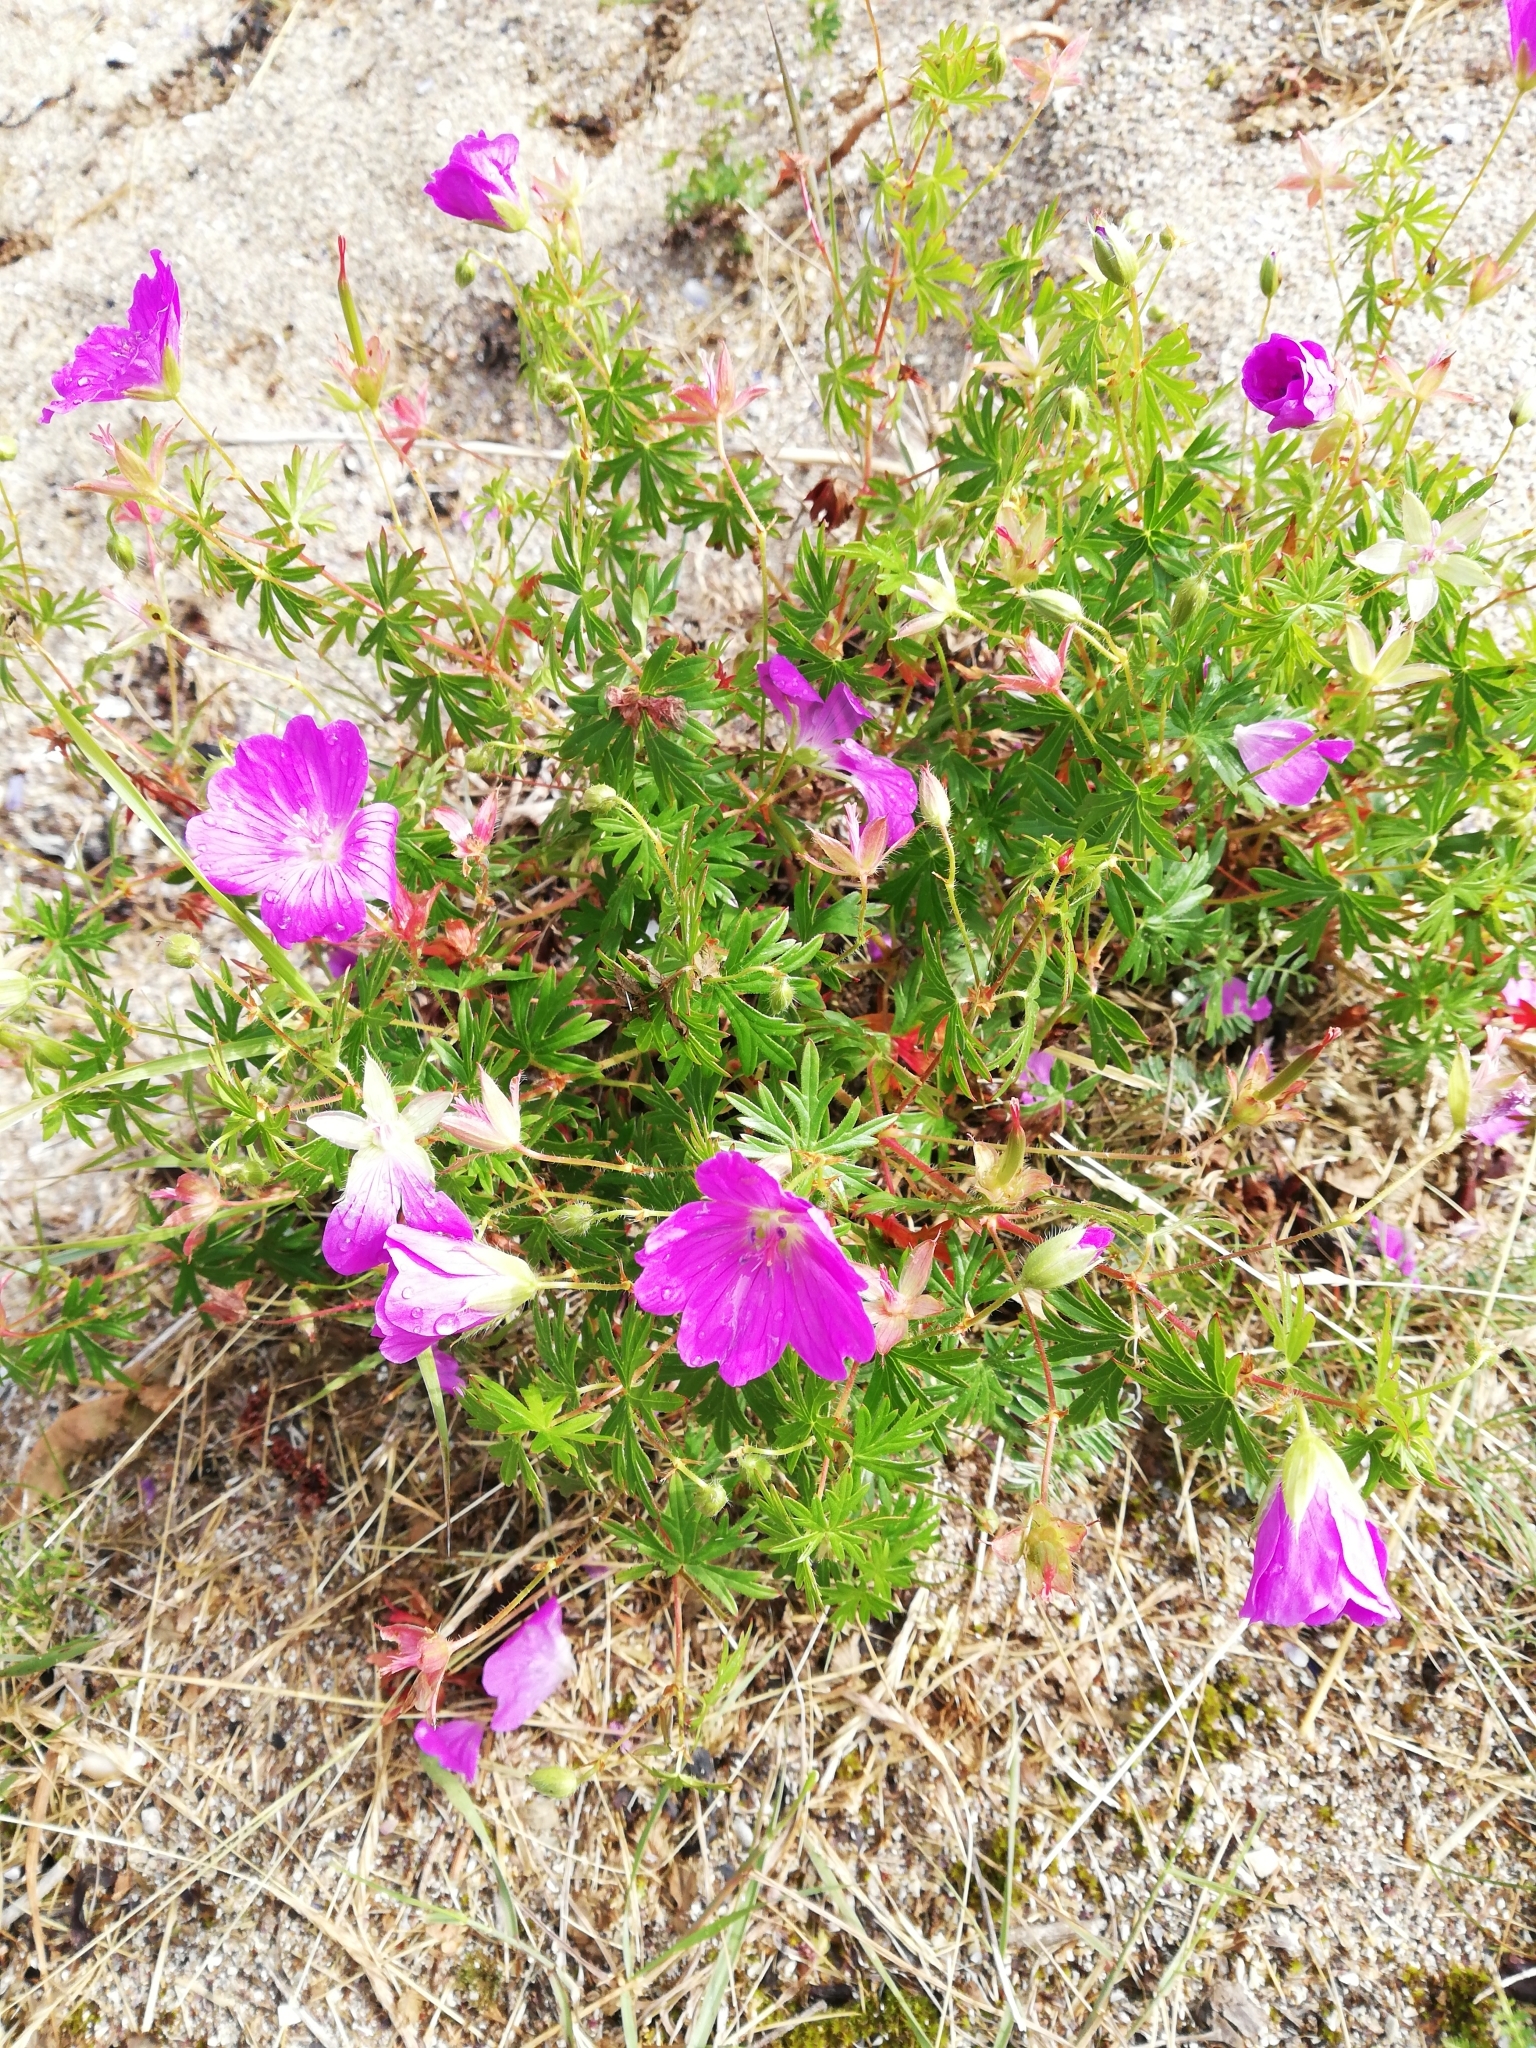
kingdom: Plantae
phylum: Tracheophyta
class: Magnoliopsida
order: Geraniales
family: Geraniaceae
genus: Geranium
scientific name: Geranium sanguineum
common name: Bloody crane's-bill
